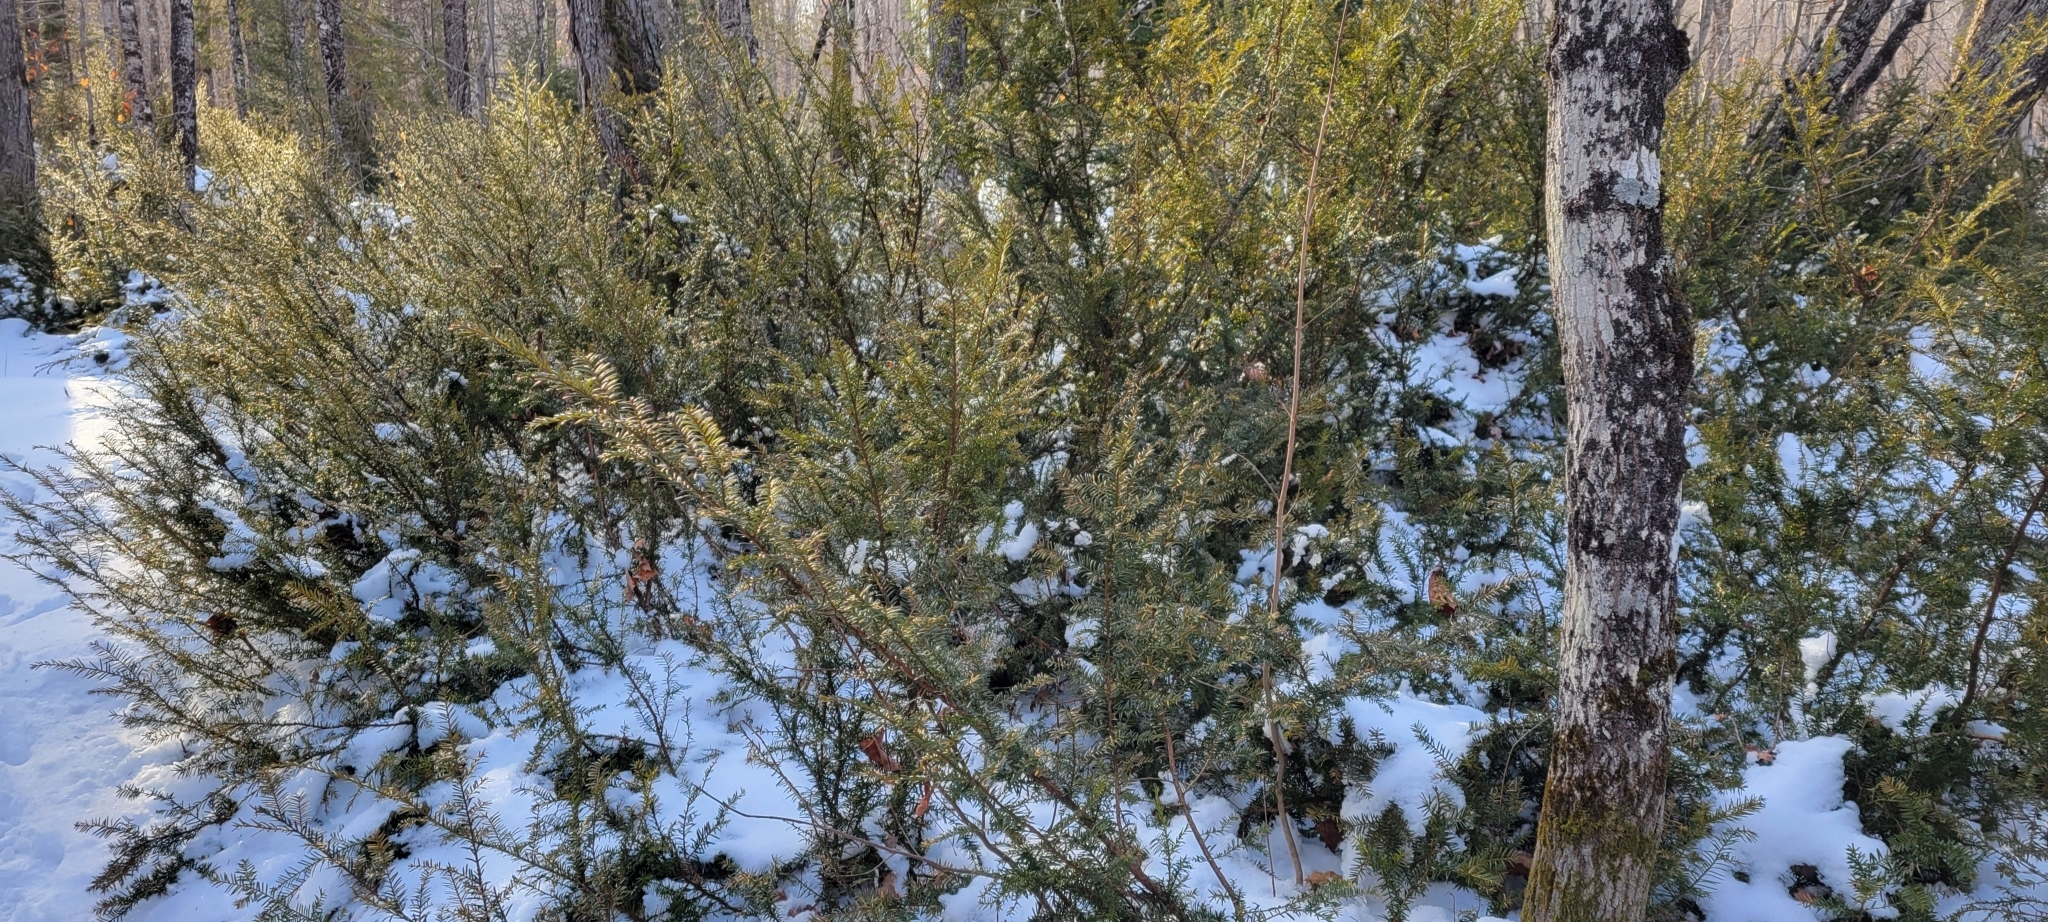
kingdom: Plantae
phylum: Tracheophyta
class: Pinopsida
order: Pinales
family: Taxaceae
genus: Taxus
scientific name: Taxus canadensis
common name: American yew
